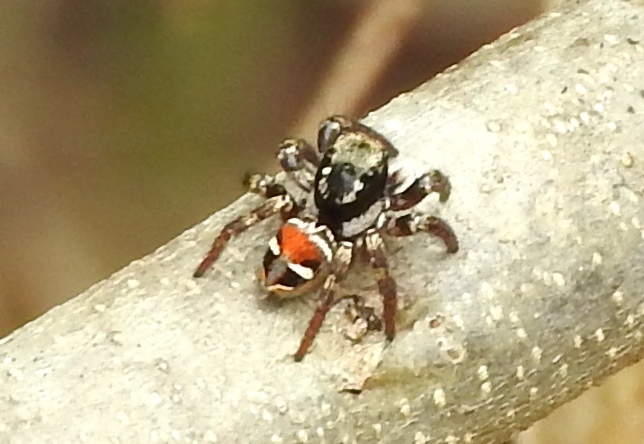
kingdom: Animalia
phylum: Arthropoda
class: Arachnida
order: Araneae
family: Salticidae
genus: Corythalia
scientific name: Corythalia opima
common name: Jumping spiders
